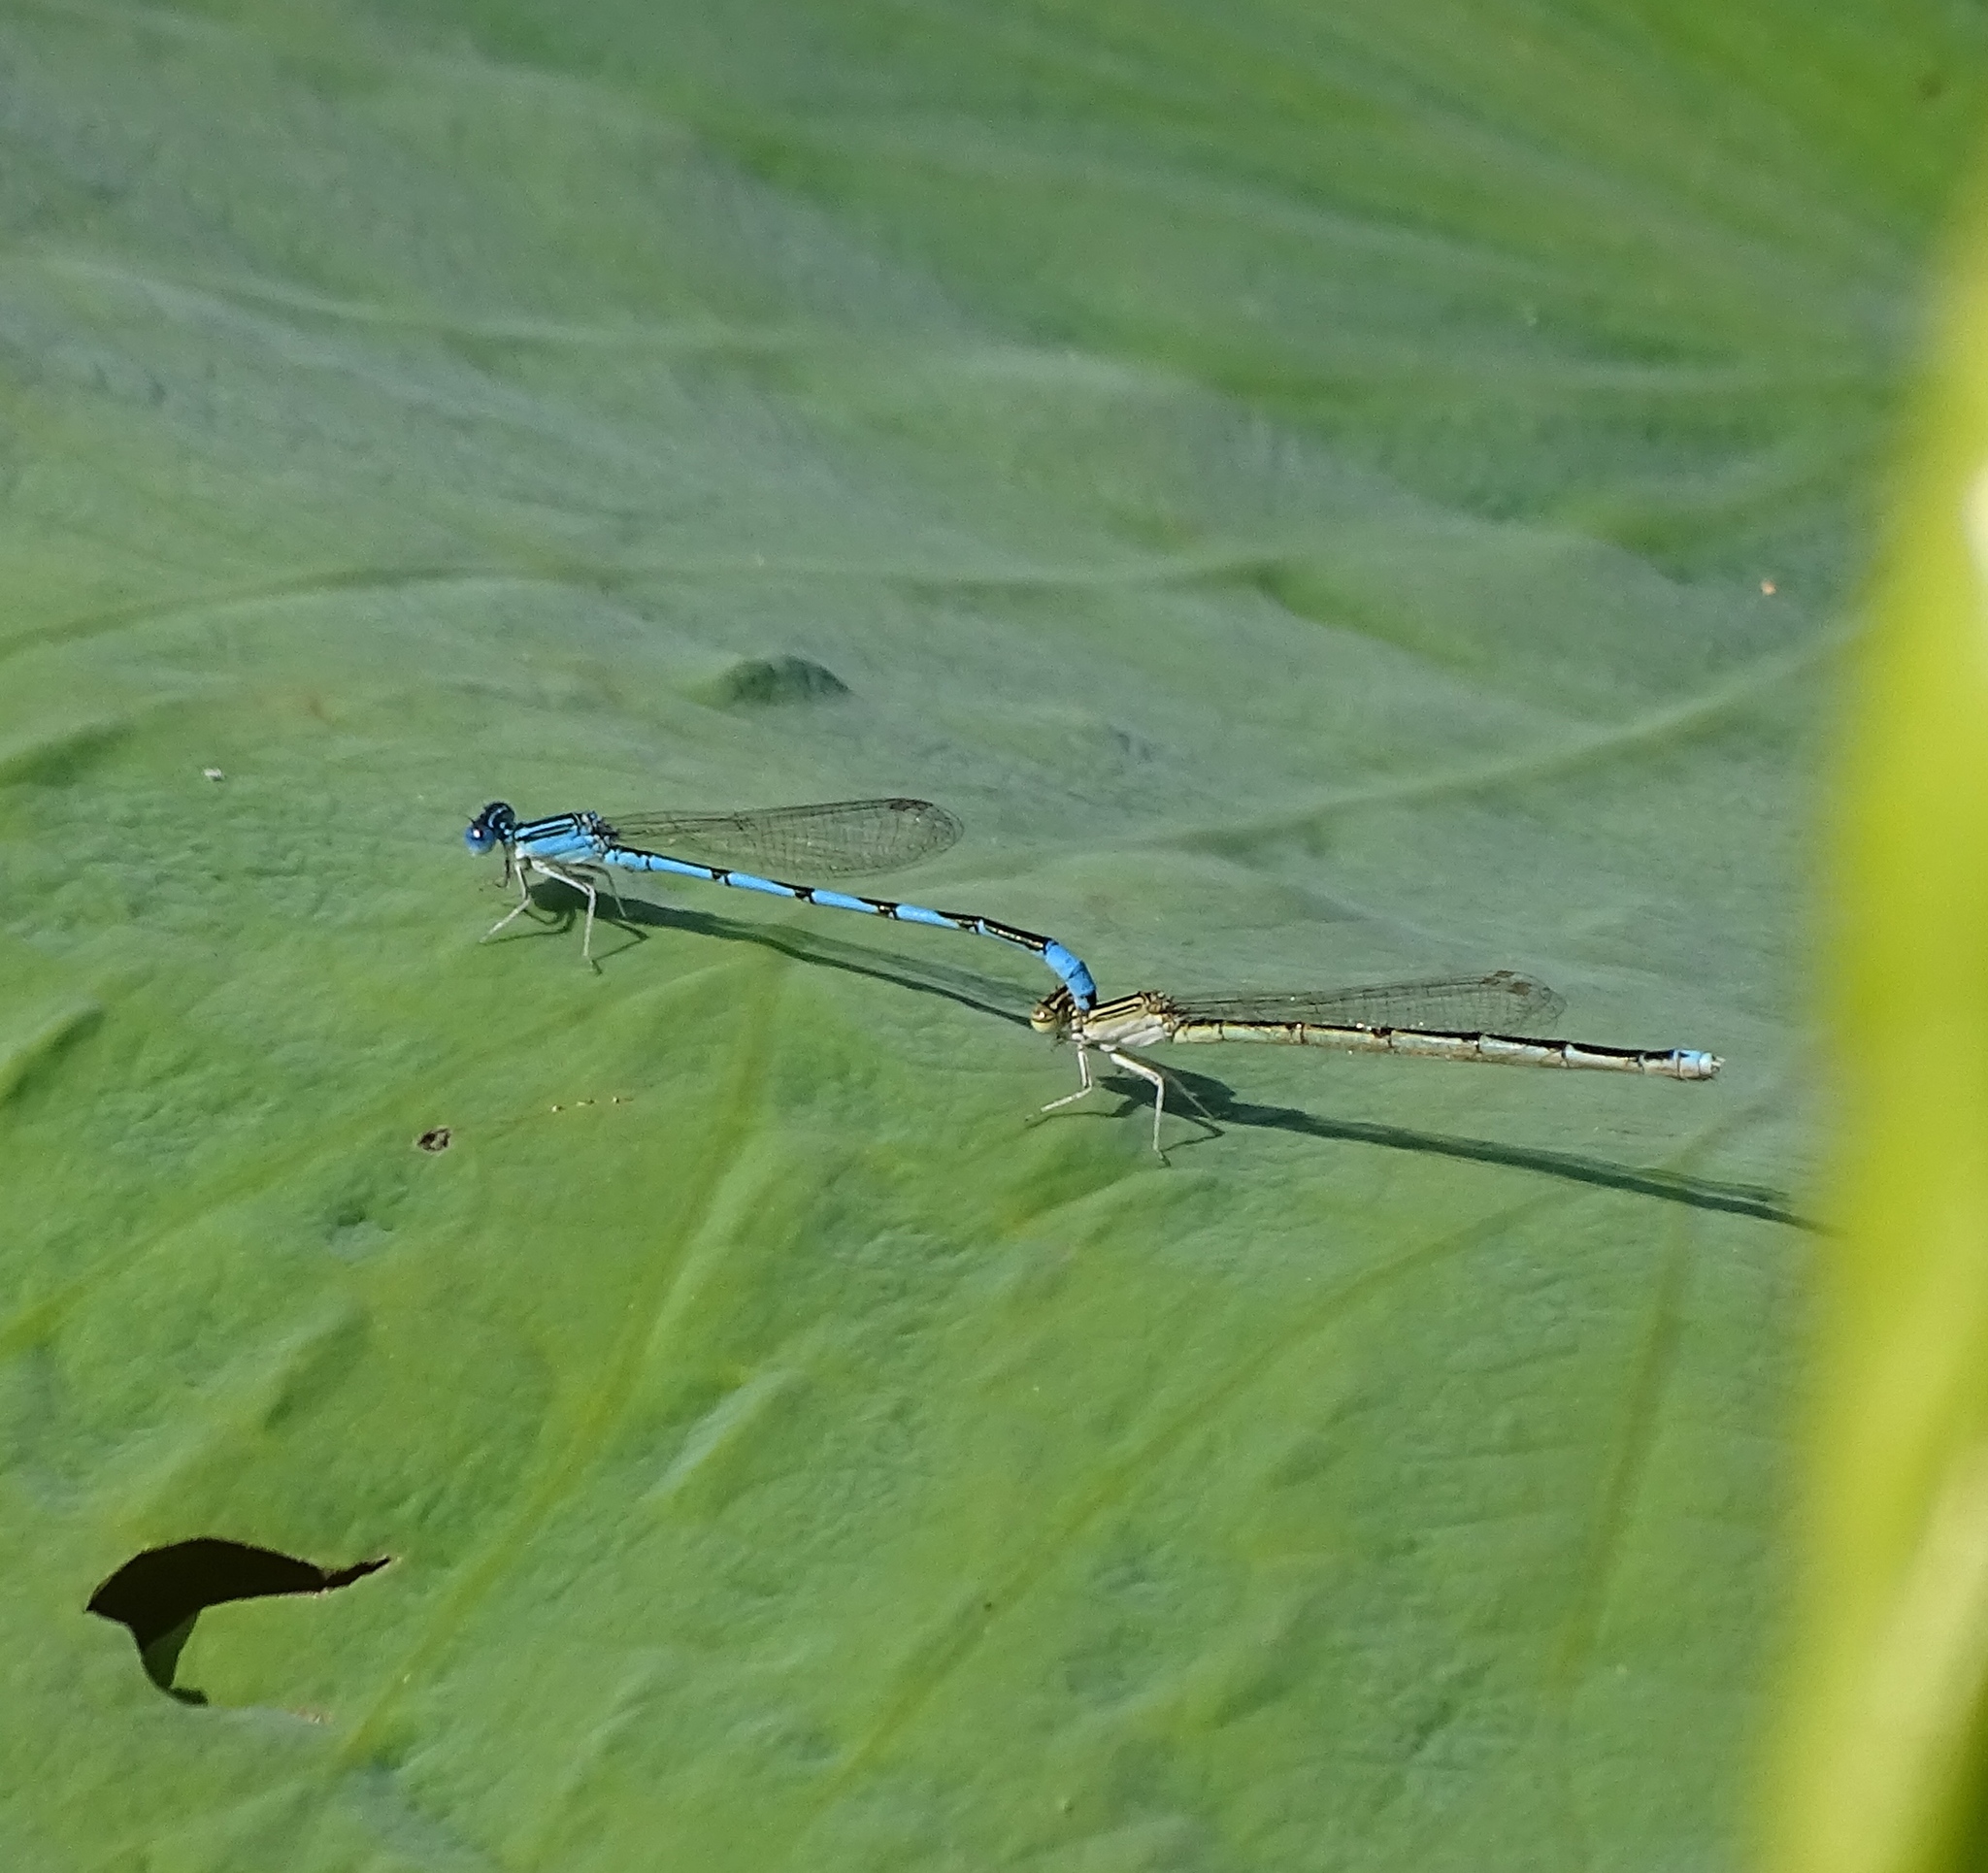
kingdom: Animalia
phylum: Arthropoda
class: Insecta
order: Odonata
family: Coenagrionidae
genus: Enallagma
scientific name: Enallagma basidens
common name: Double-striped bluet
